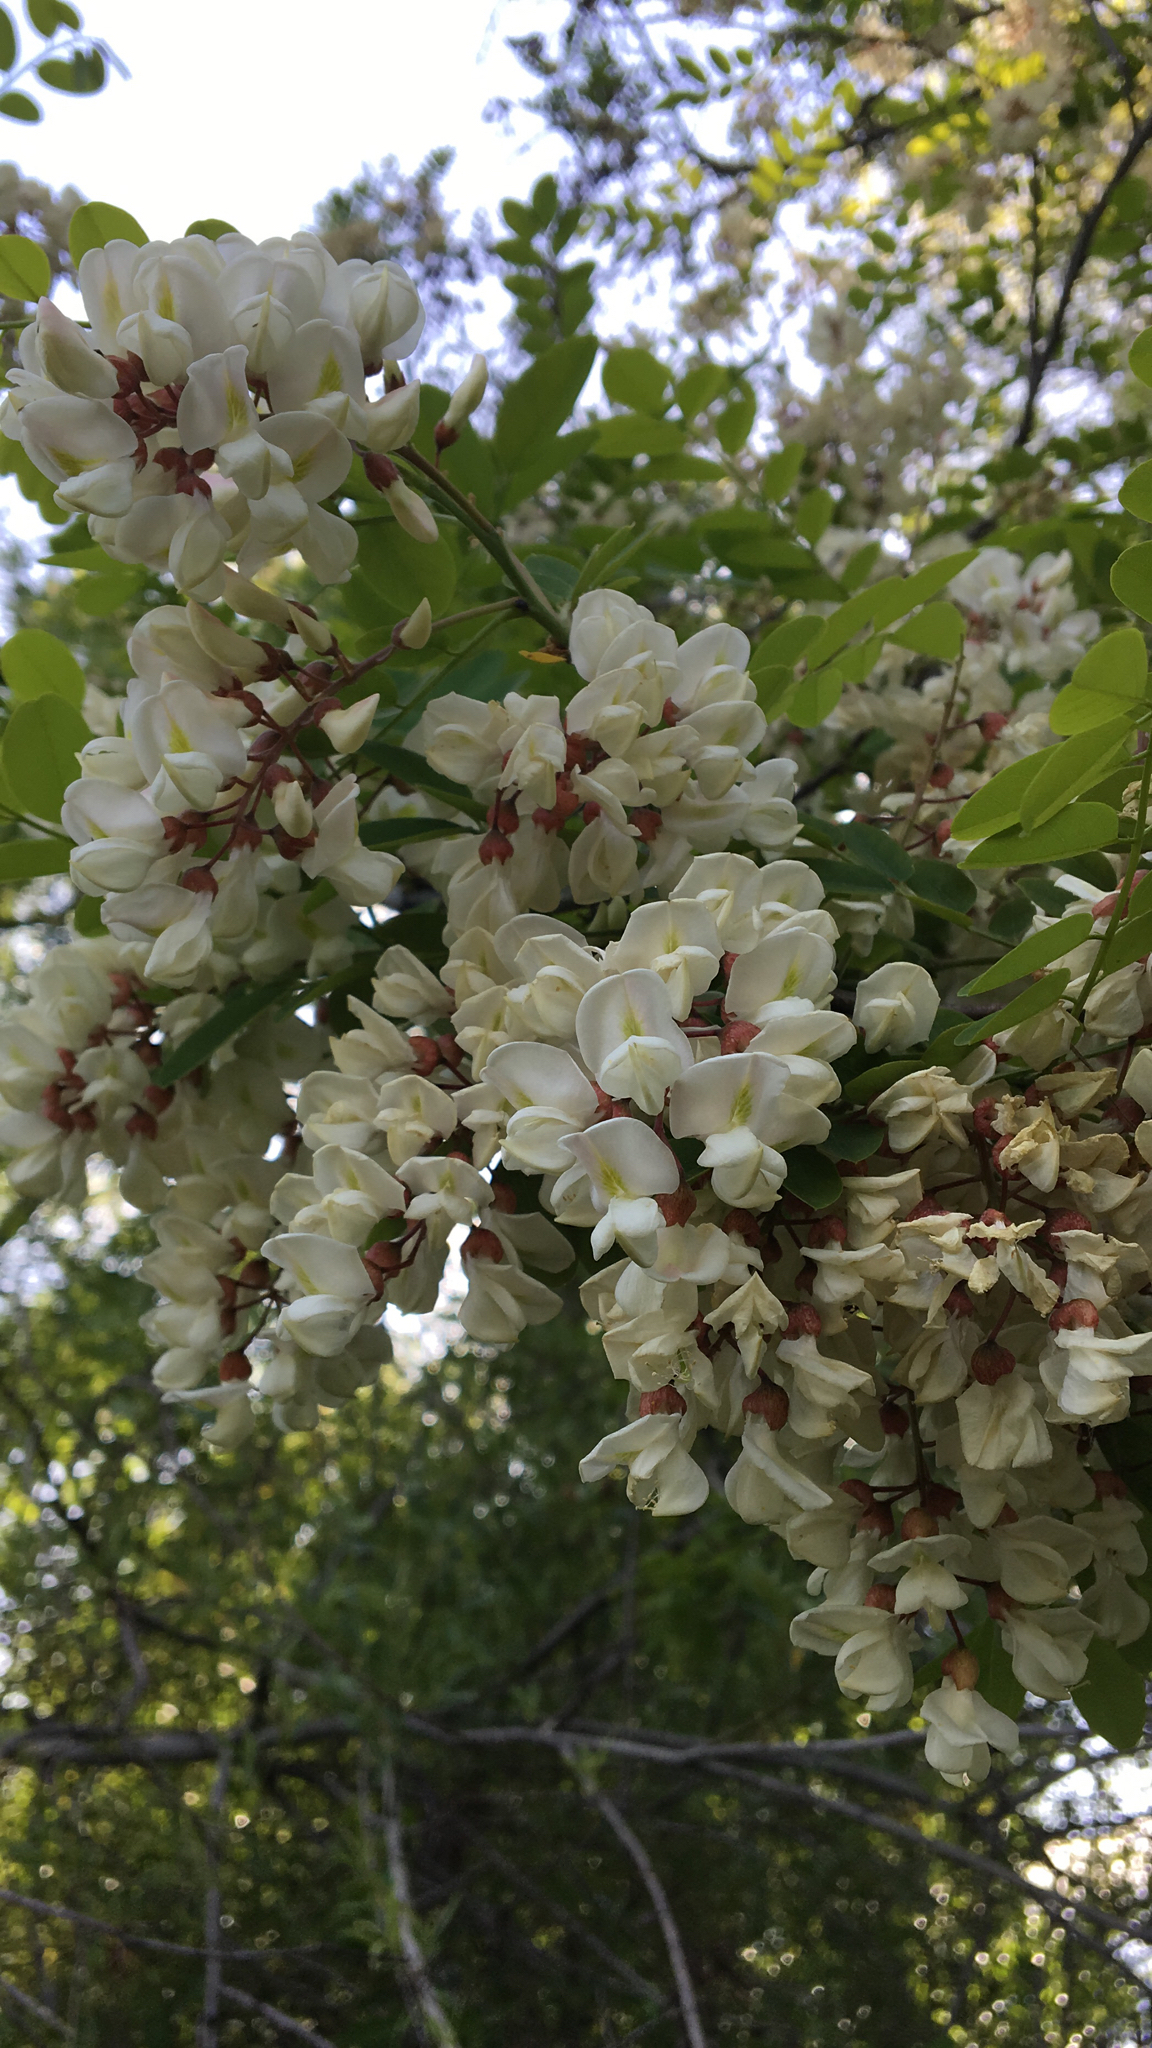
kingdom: Plantae
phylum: Tracheophyta
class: Magnoliopsida
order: Fabales
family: Fabaceae
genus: Robinia
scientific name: Robinia pseudoacacia
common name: Black locust
